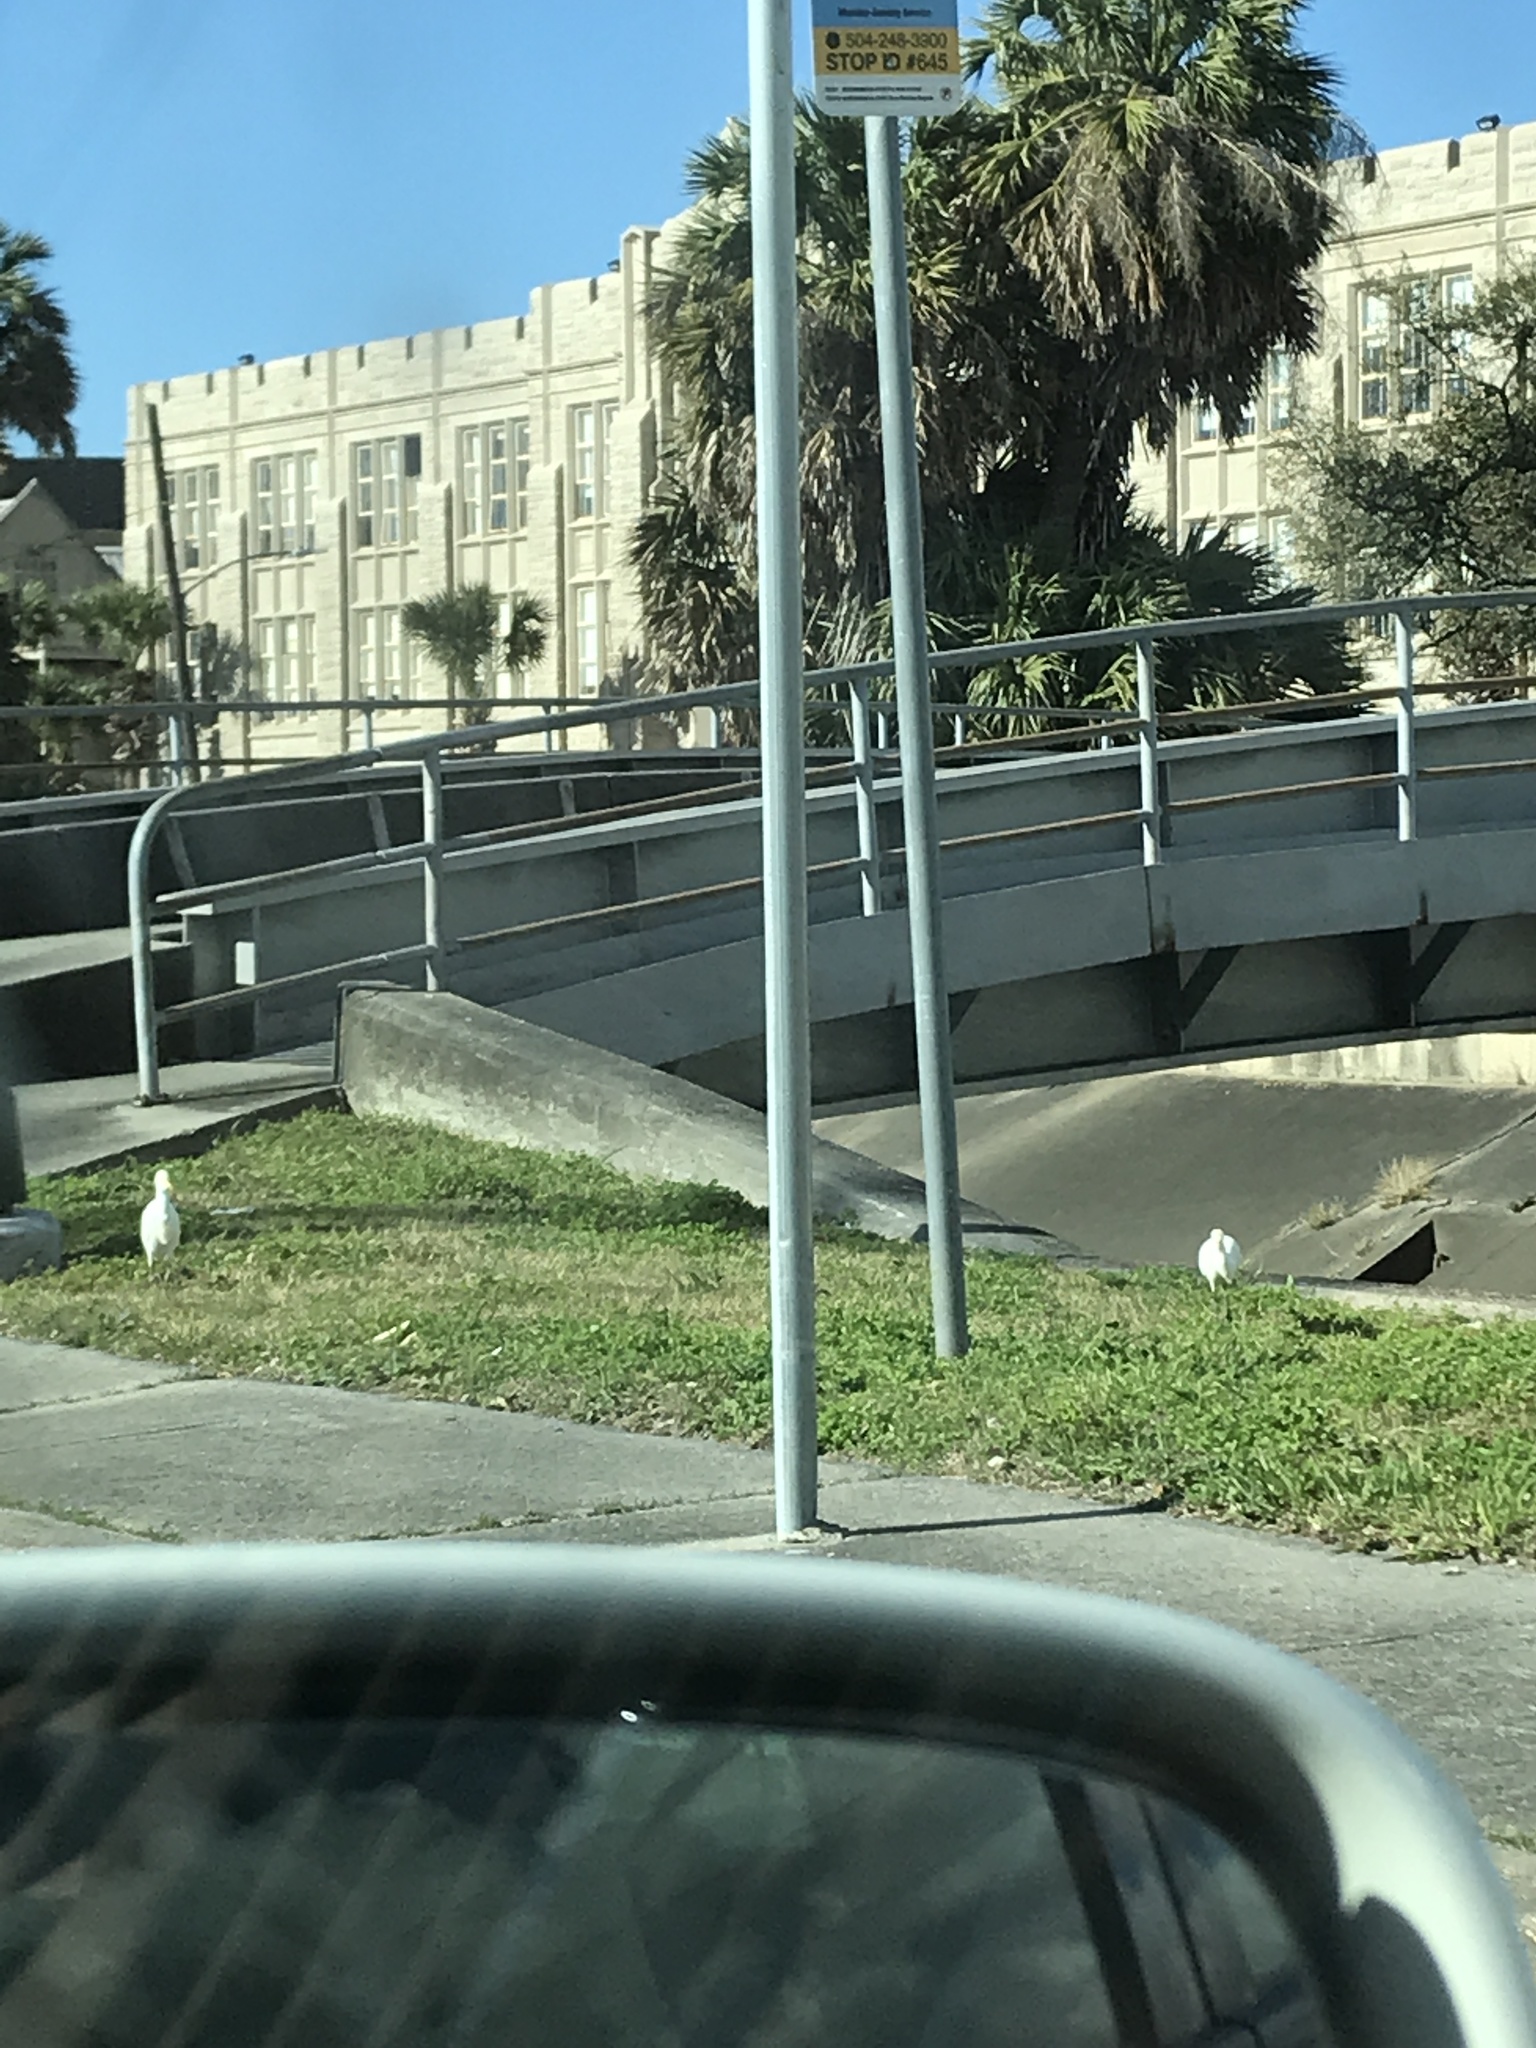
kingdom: Animalia
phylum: Chordata
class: Aves
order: Pelecaniformes
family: Ardeidae
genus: Bubulcus
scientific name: Bubulcus ibis
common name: Cattle egret
